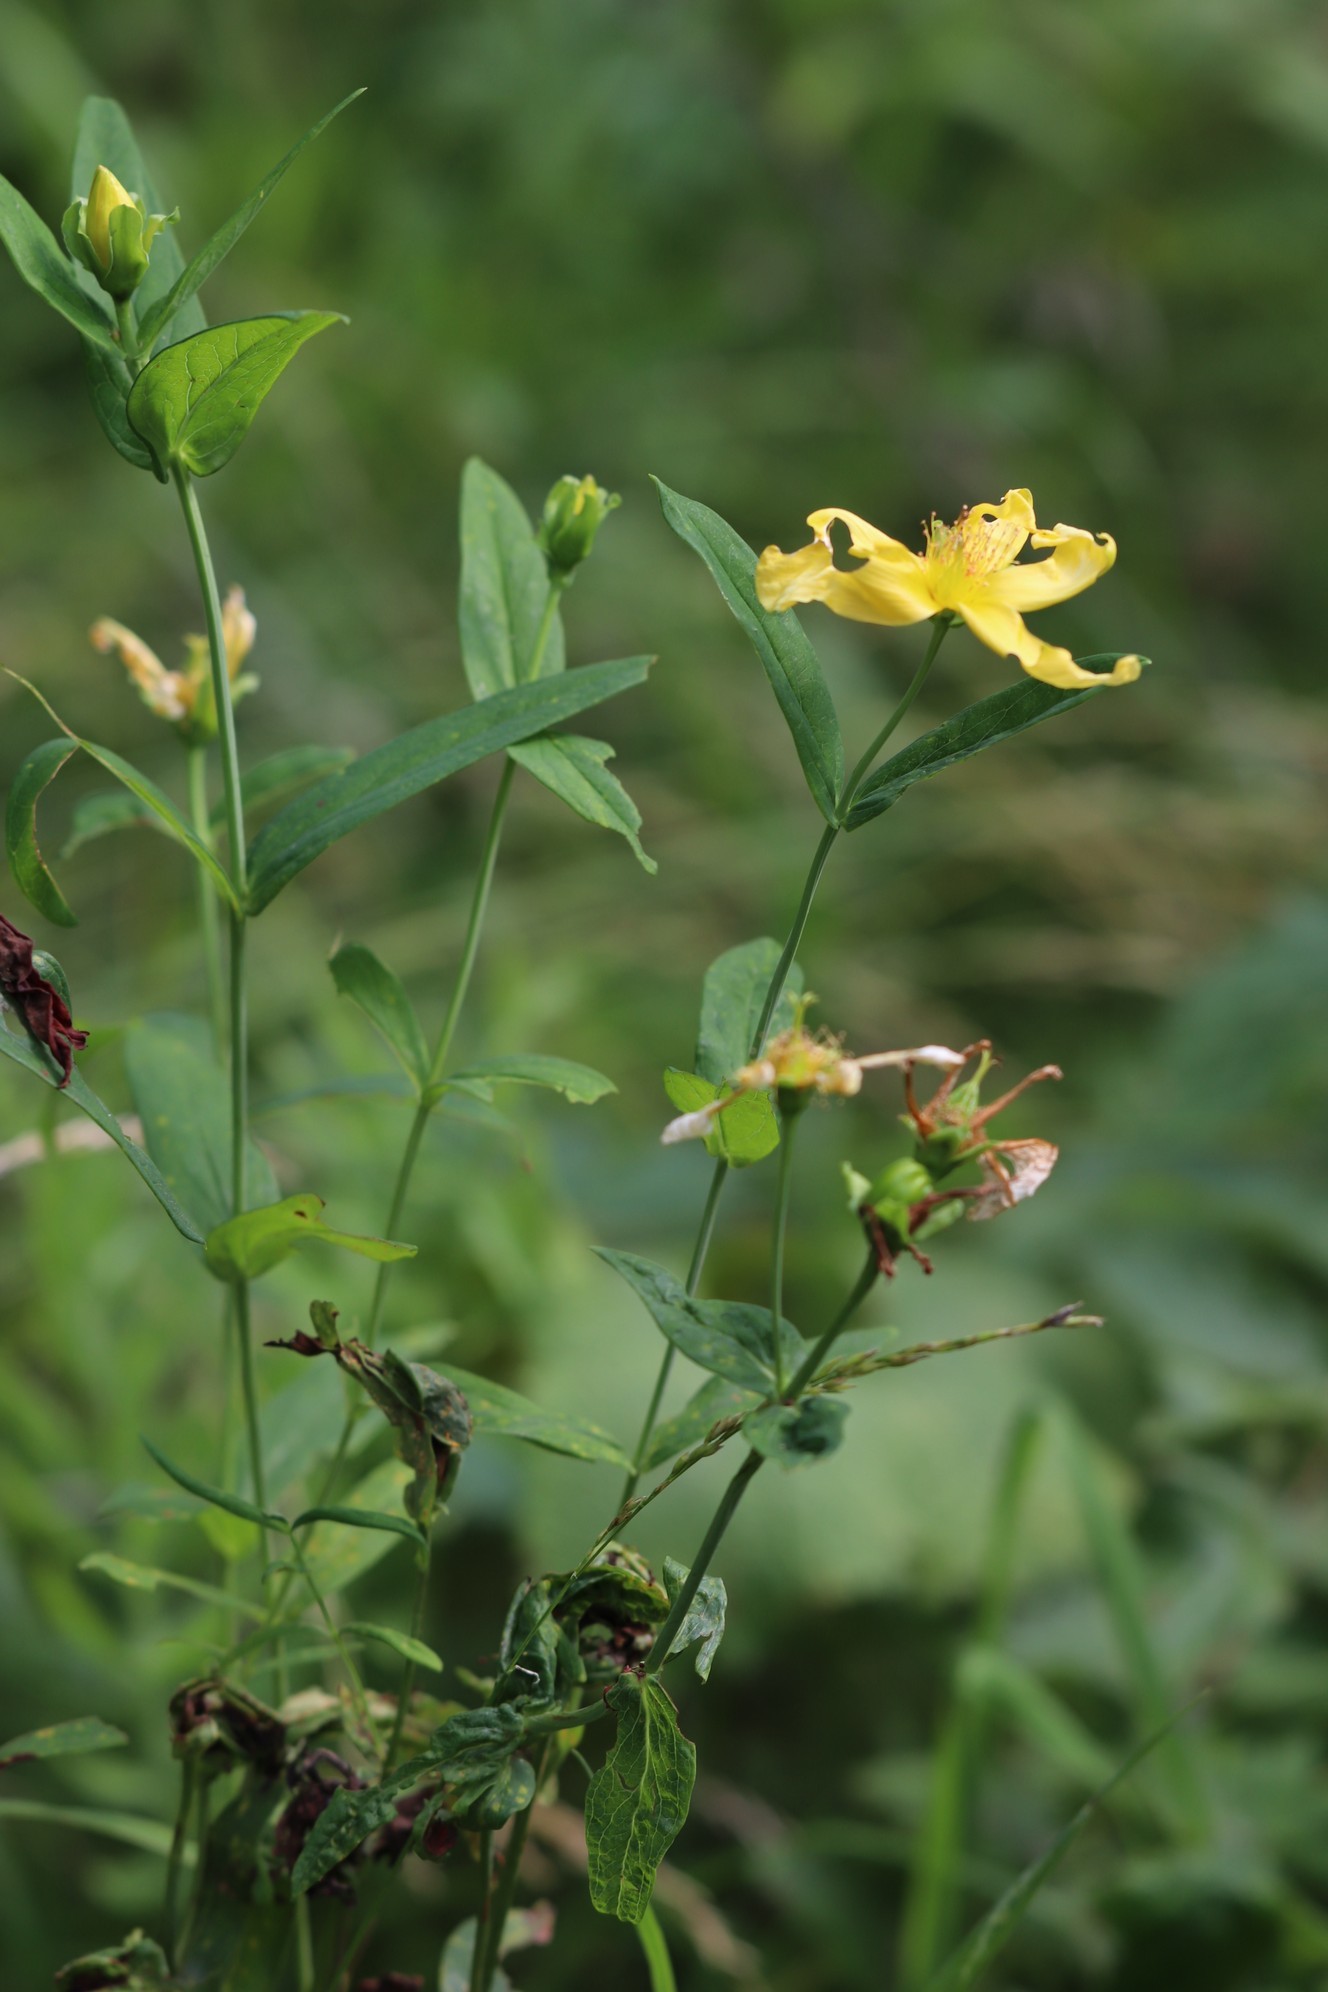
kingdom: Plantae
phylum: Tracheophyta
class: Magnoliopsida
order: Malpighiales
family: Hypericaceae
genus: Hypericum
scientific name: Hypericum ascyron
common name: Giant st. john's-wort
